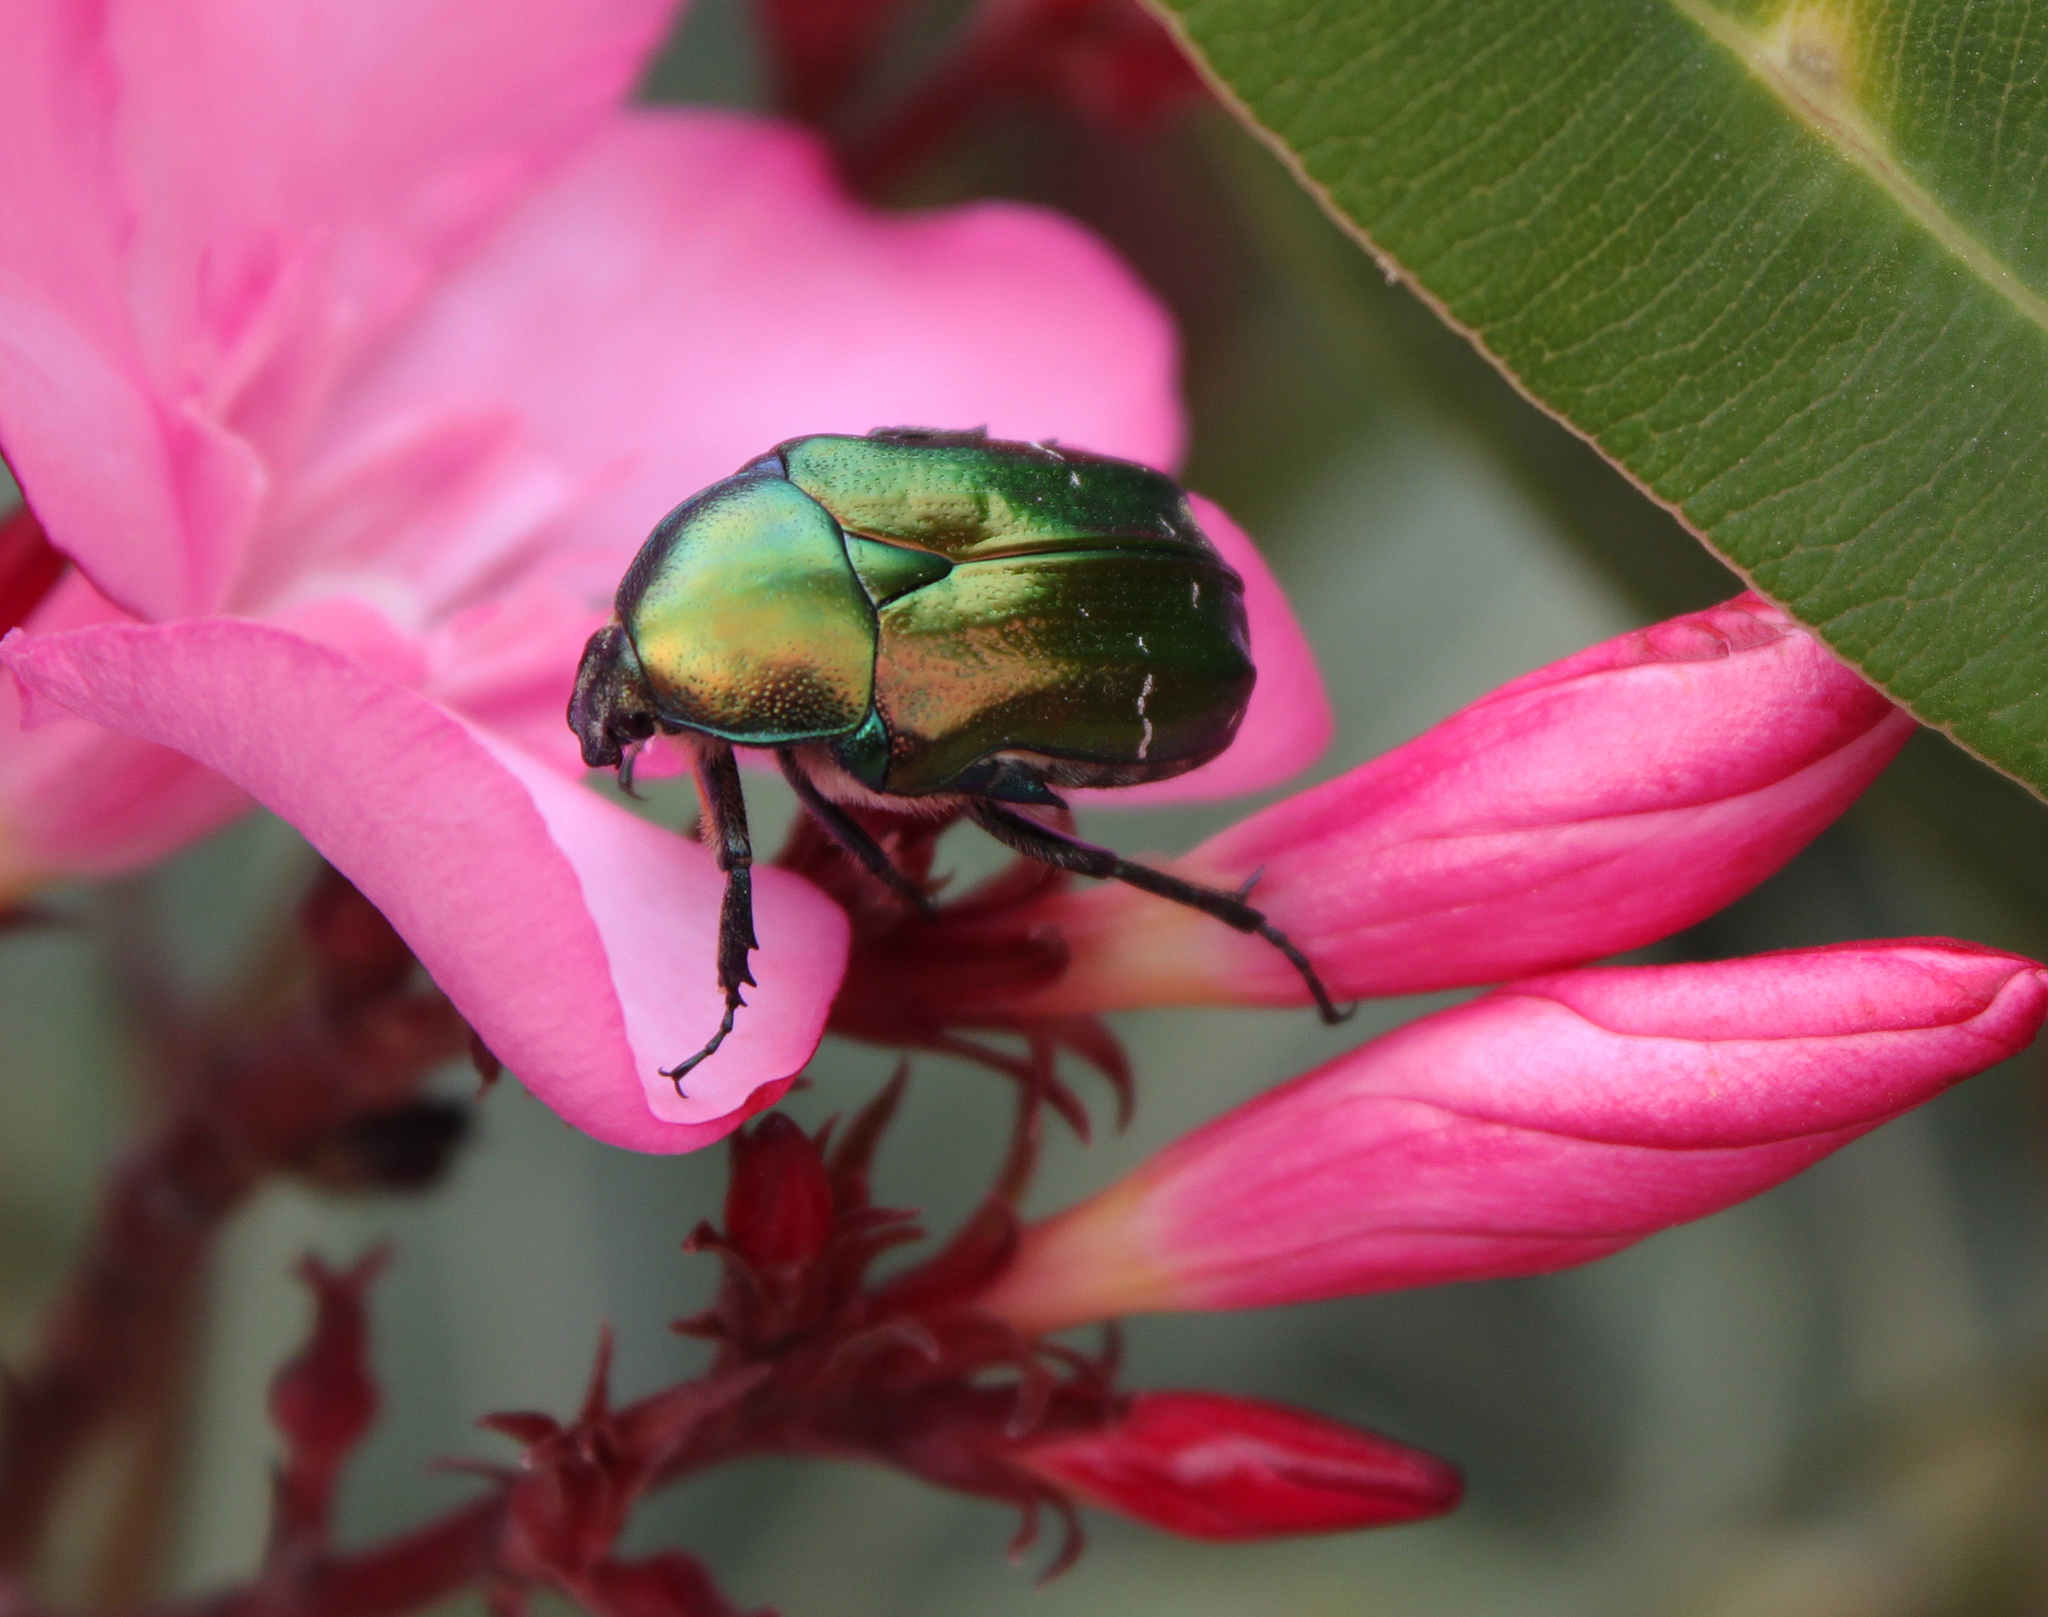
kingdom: Animalia
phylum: Arthropoda
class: Insecta
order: Coleoptera
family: Scarabaeidae
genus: Cetonia
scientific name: Cetonia aurata
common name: Rose chafer
